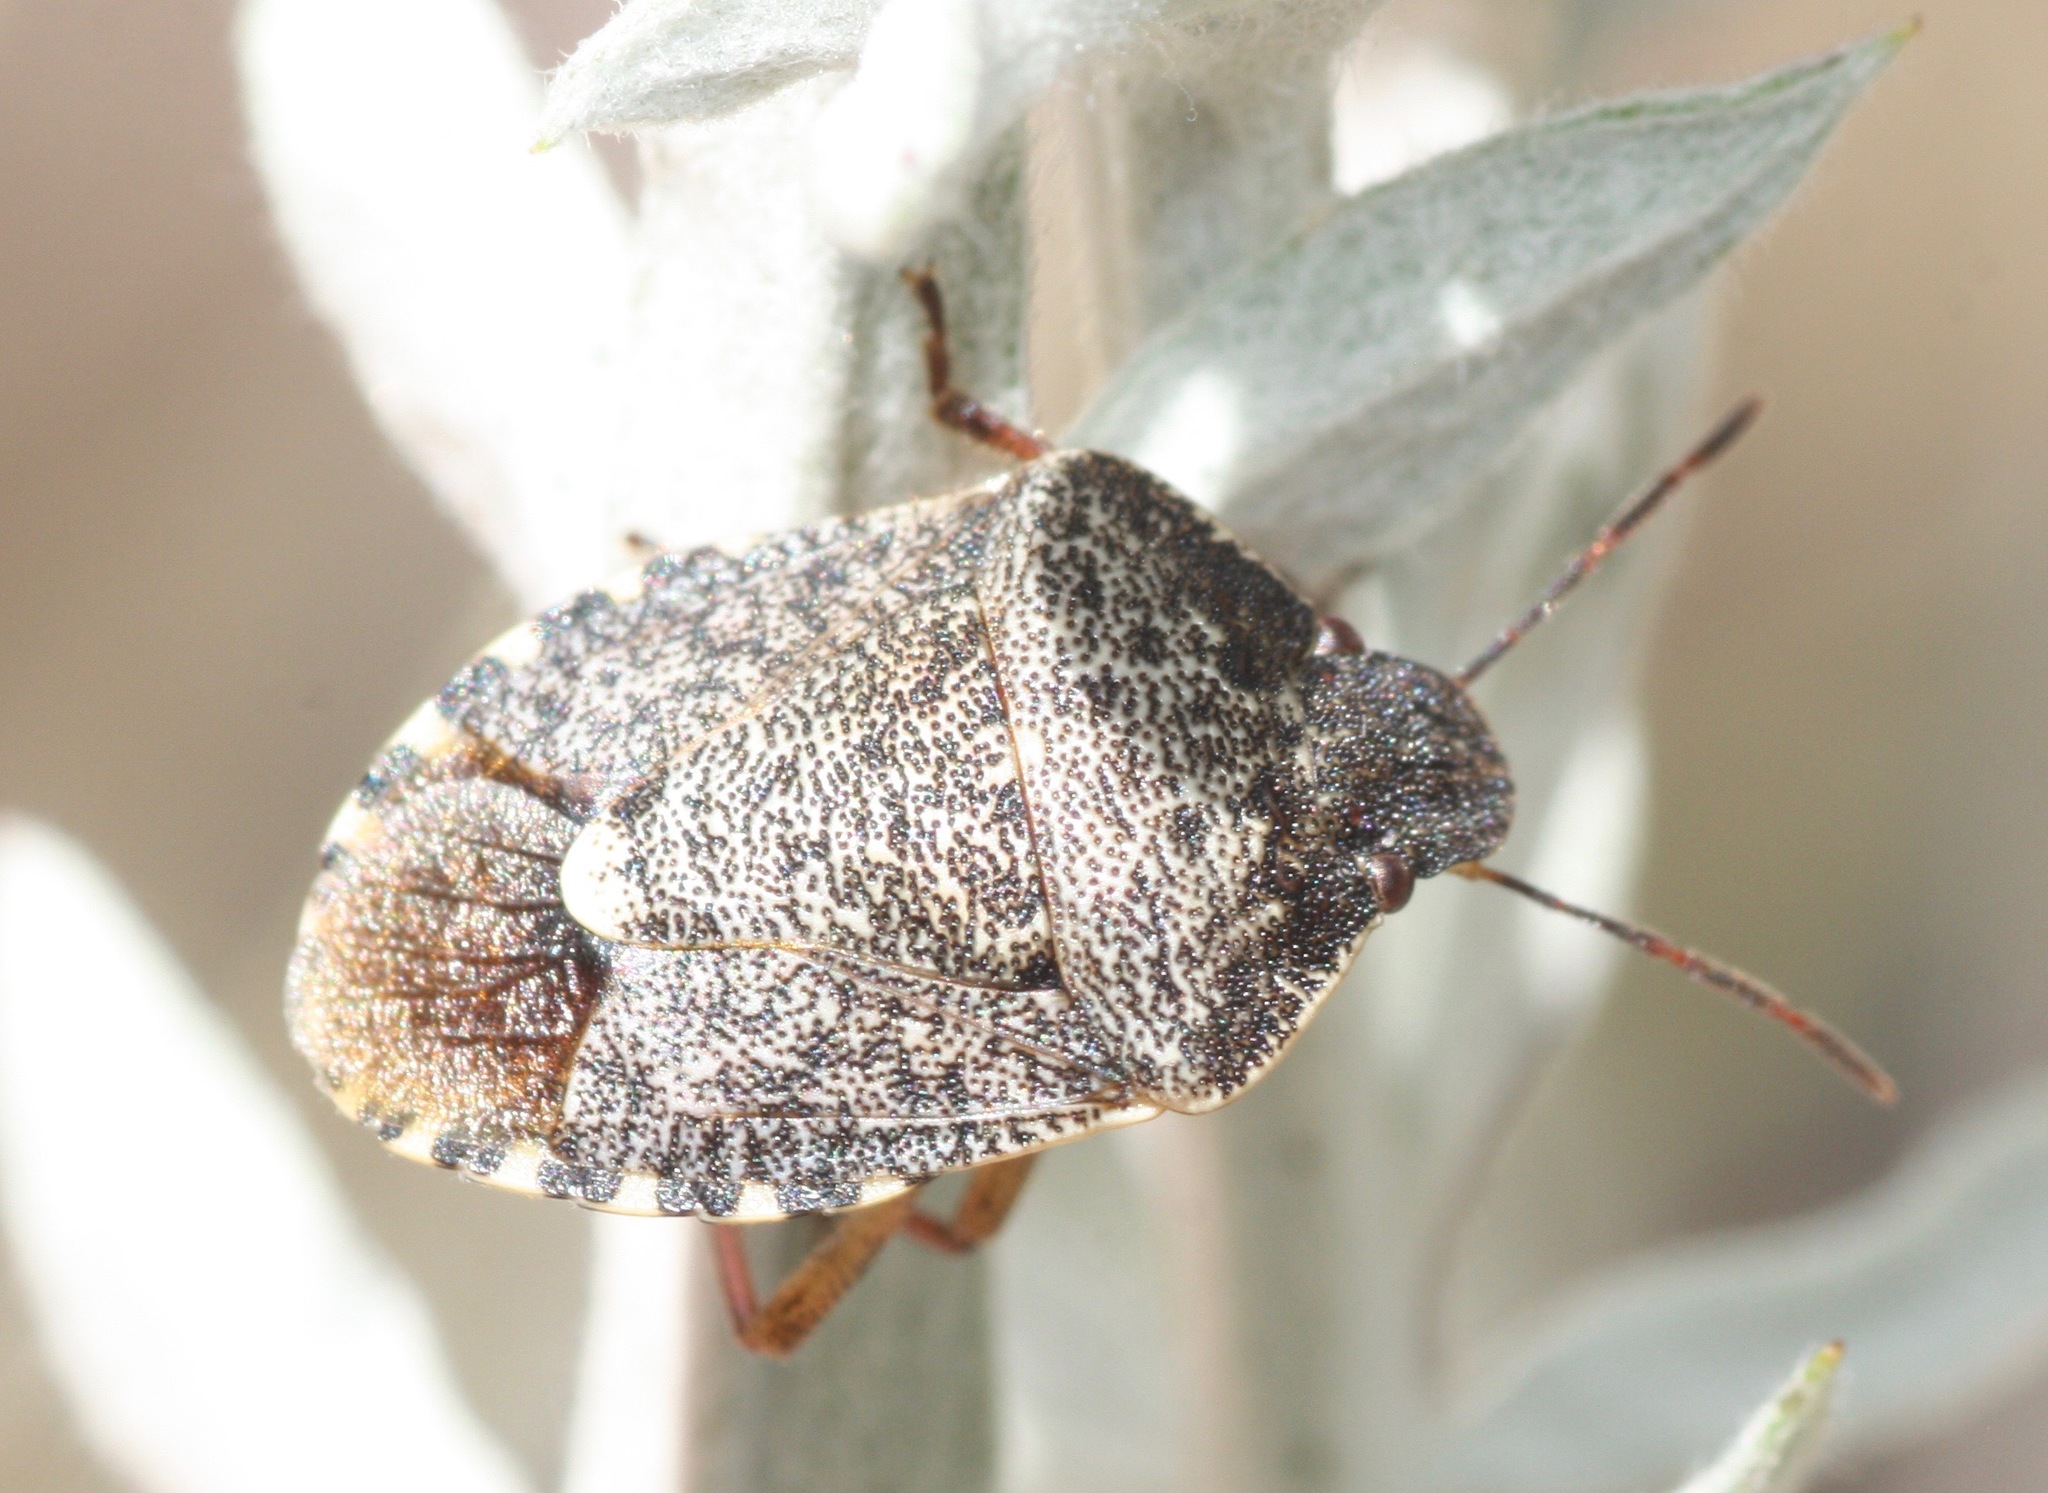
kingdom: Animalia
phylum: Arthropoda
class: Insecta
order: Hemiptera
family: Pentatomidae
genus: Holcostethus
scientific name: Holcostethus abbreviatus
